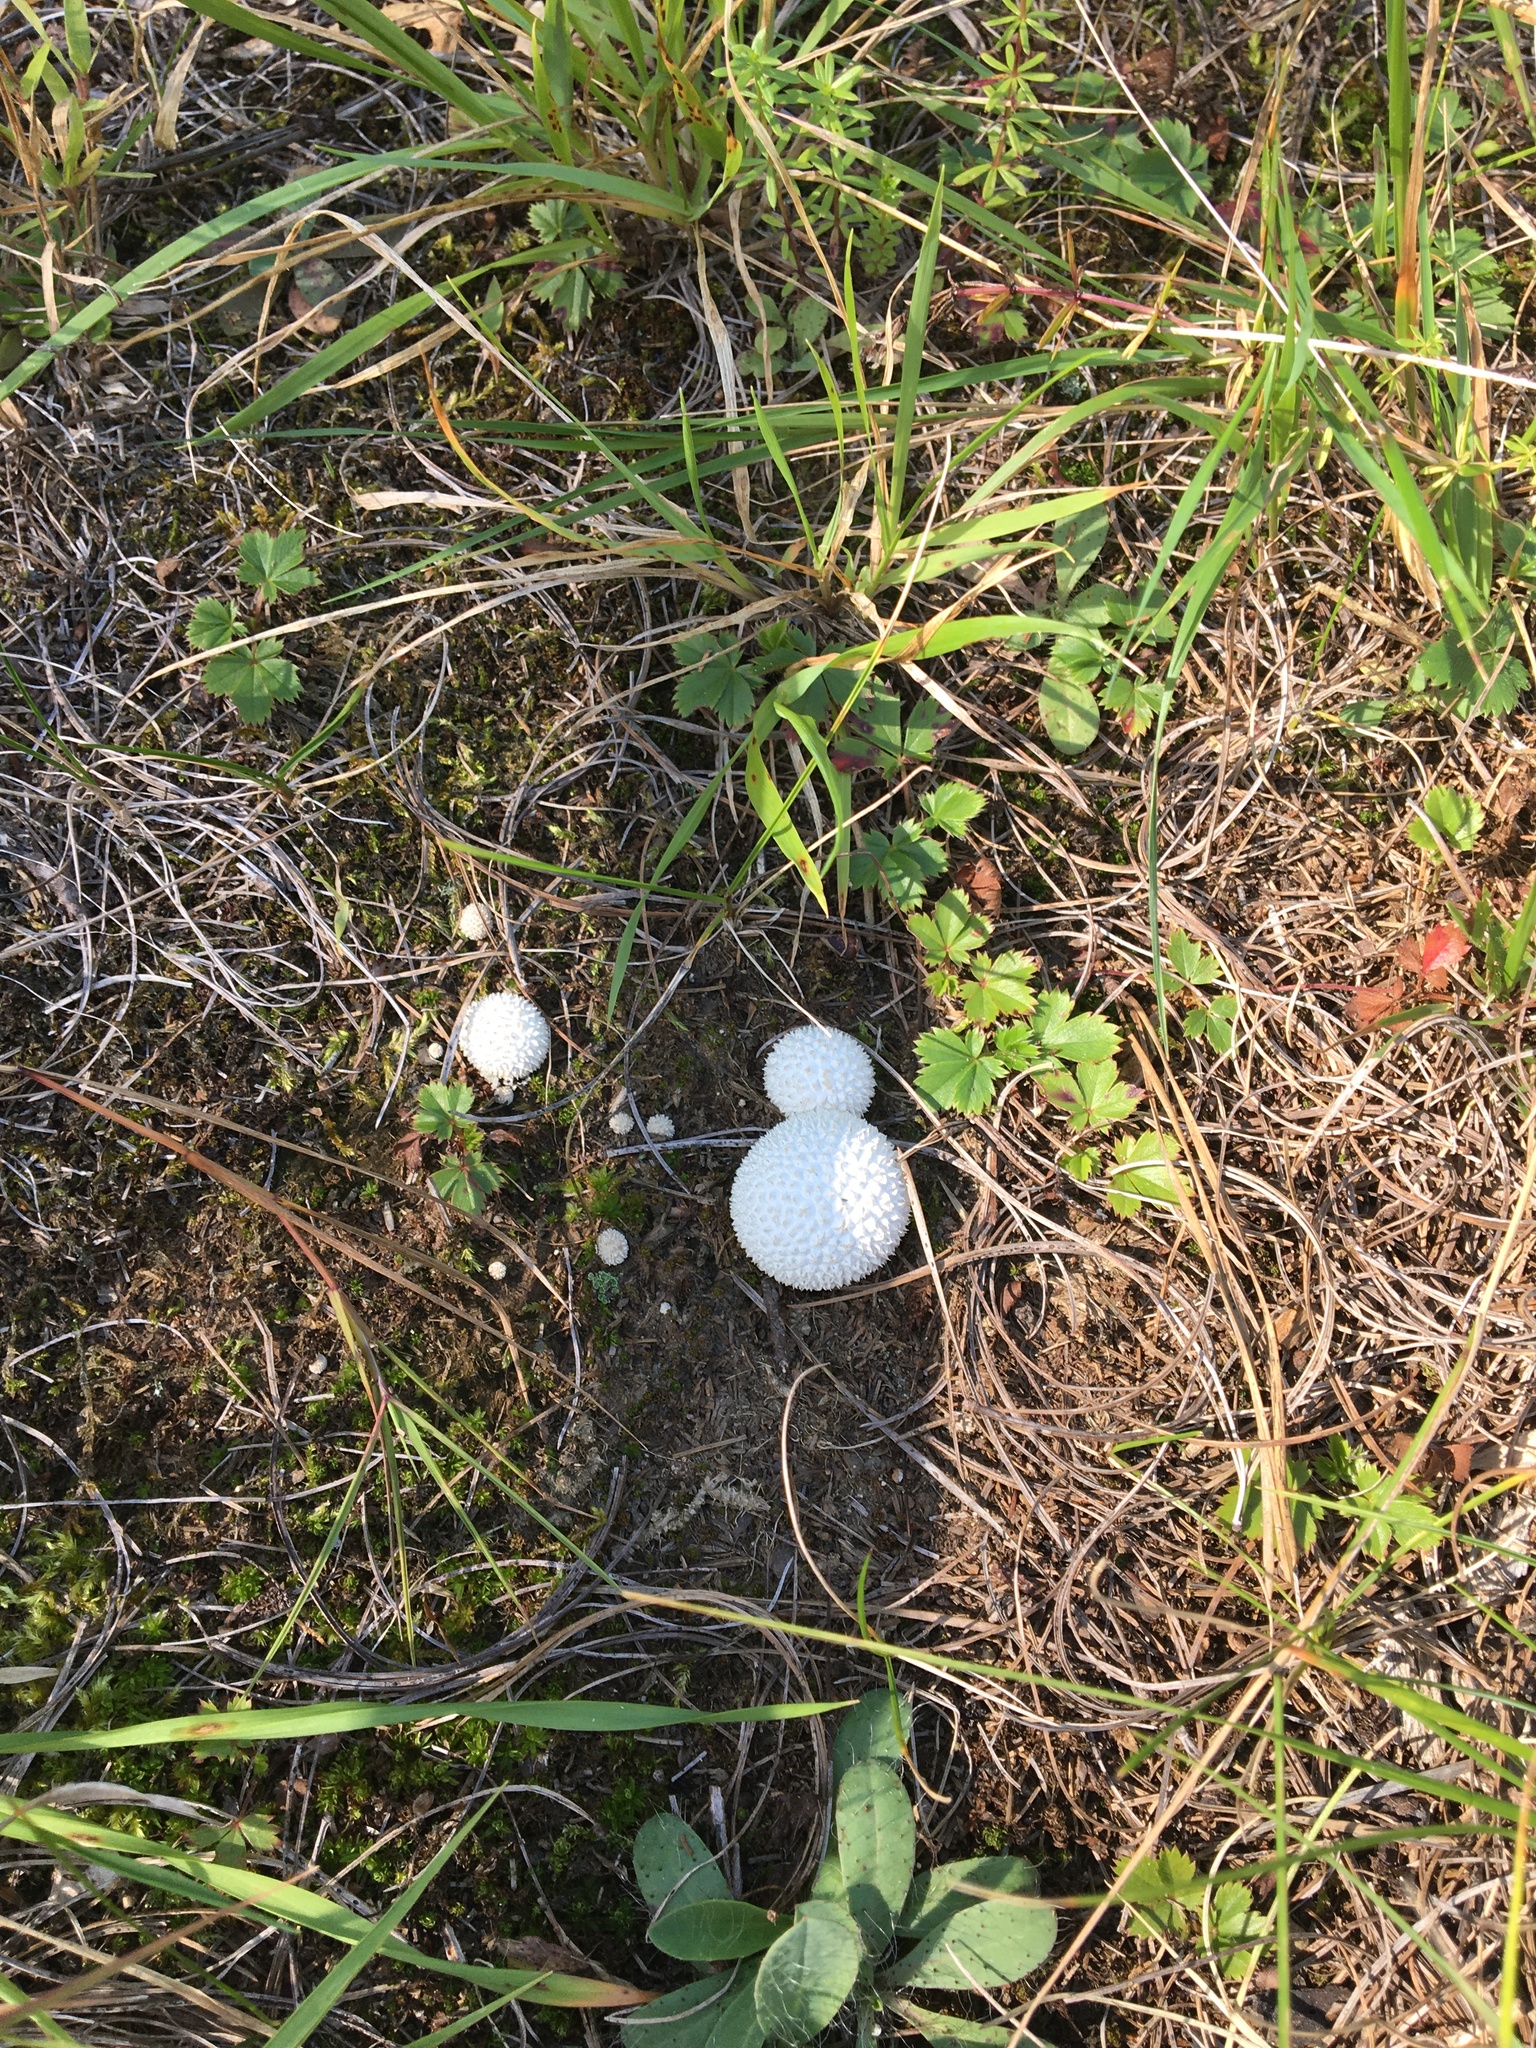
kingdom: Fungi
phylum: Basidiomycota
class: Agaricomycetes
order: Agaricales
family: Agaricaceae
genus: Lycoperdon
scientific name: Lycoperdon marginatum
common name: Peeling puffball
